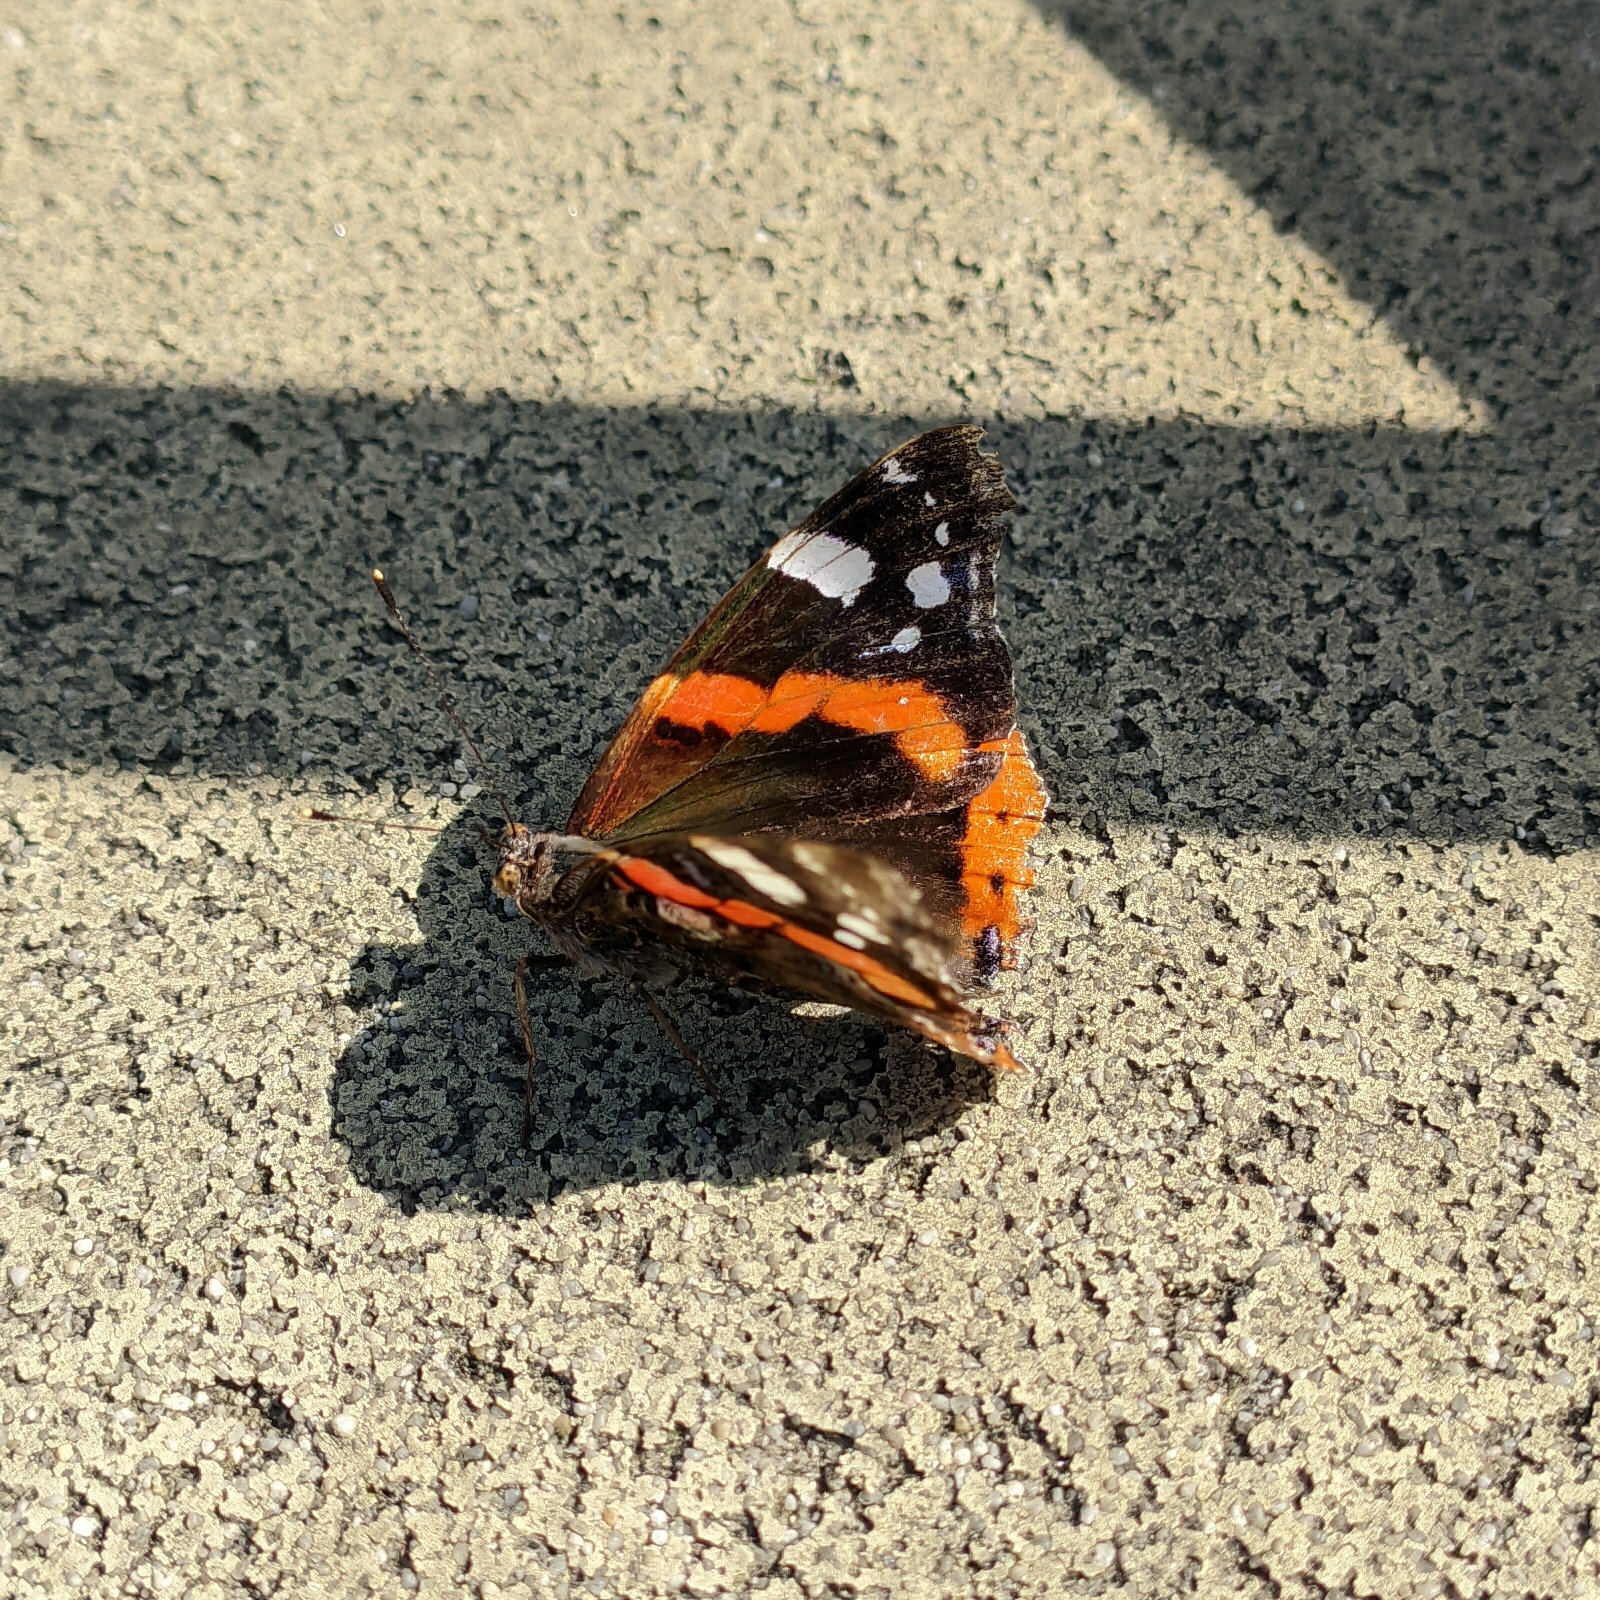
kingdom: Animalia
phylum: Arthropoda
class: Insecta
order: Lepidoptera
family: Nymphalidae
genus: Vanessa
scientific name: Vanessa atalanta
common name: Red admiral
